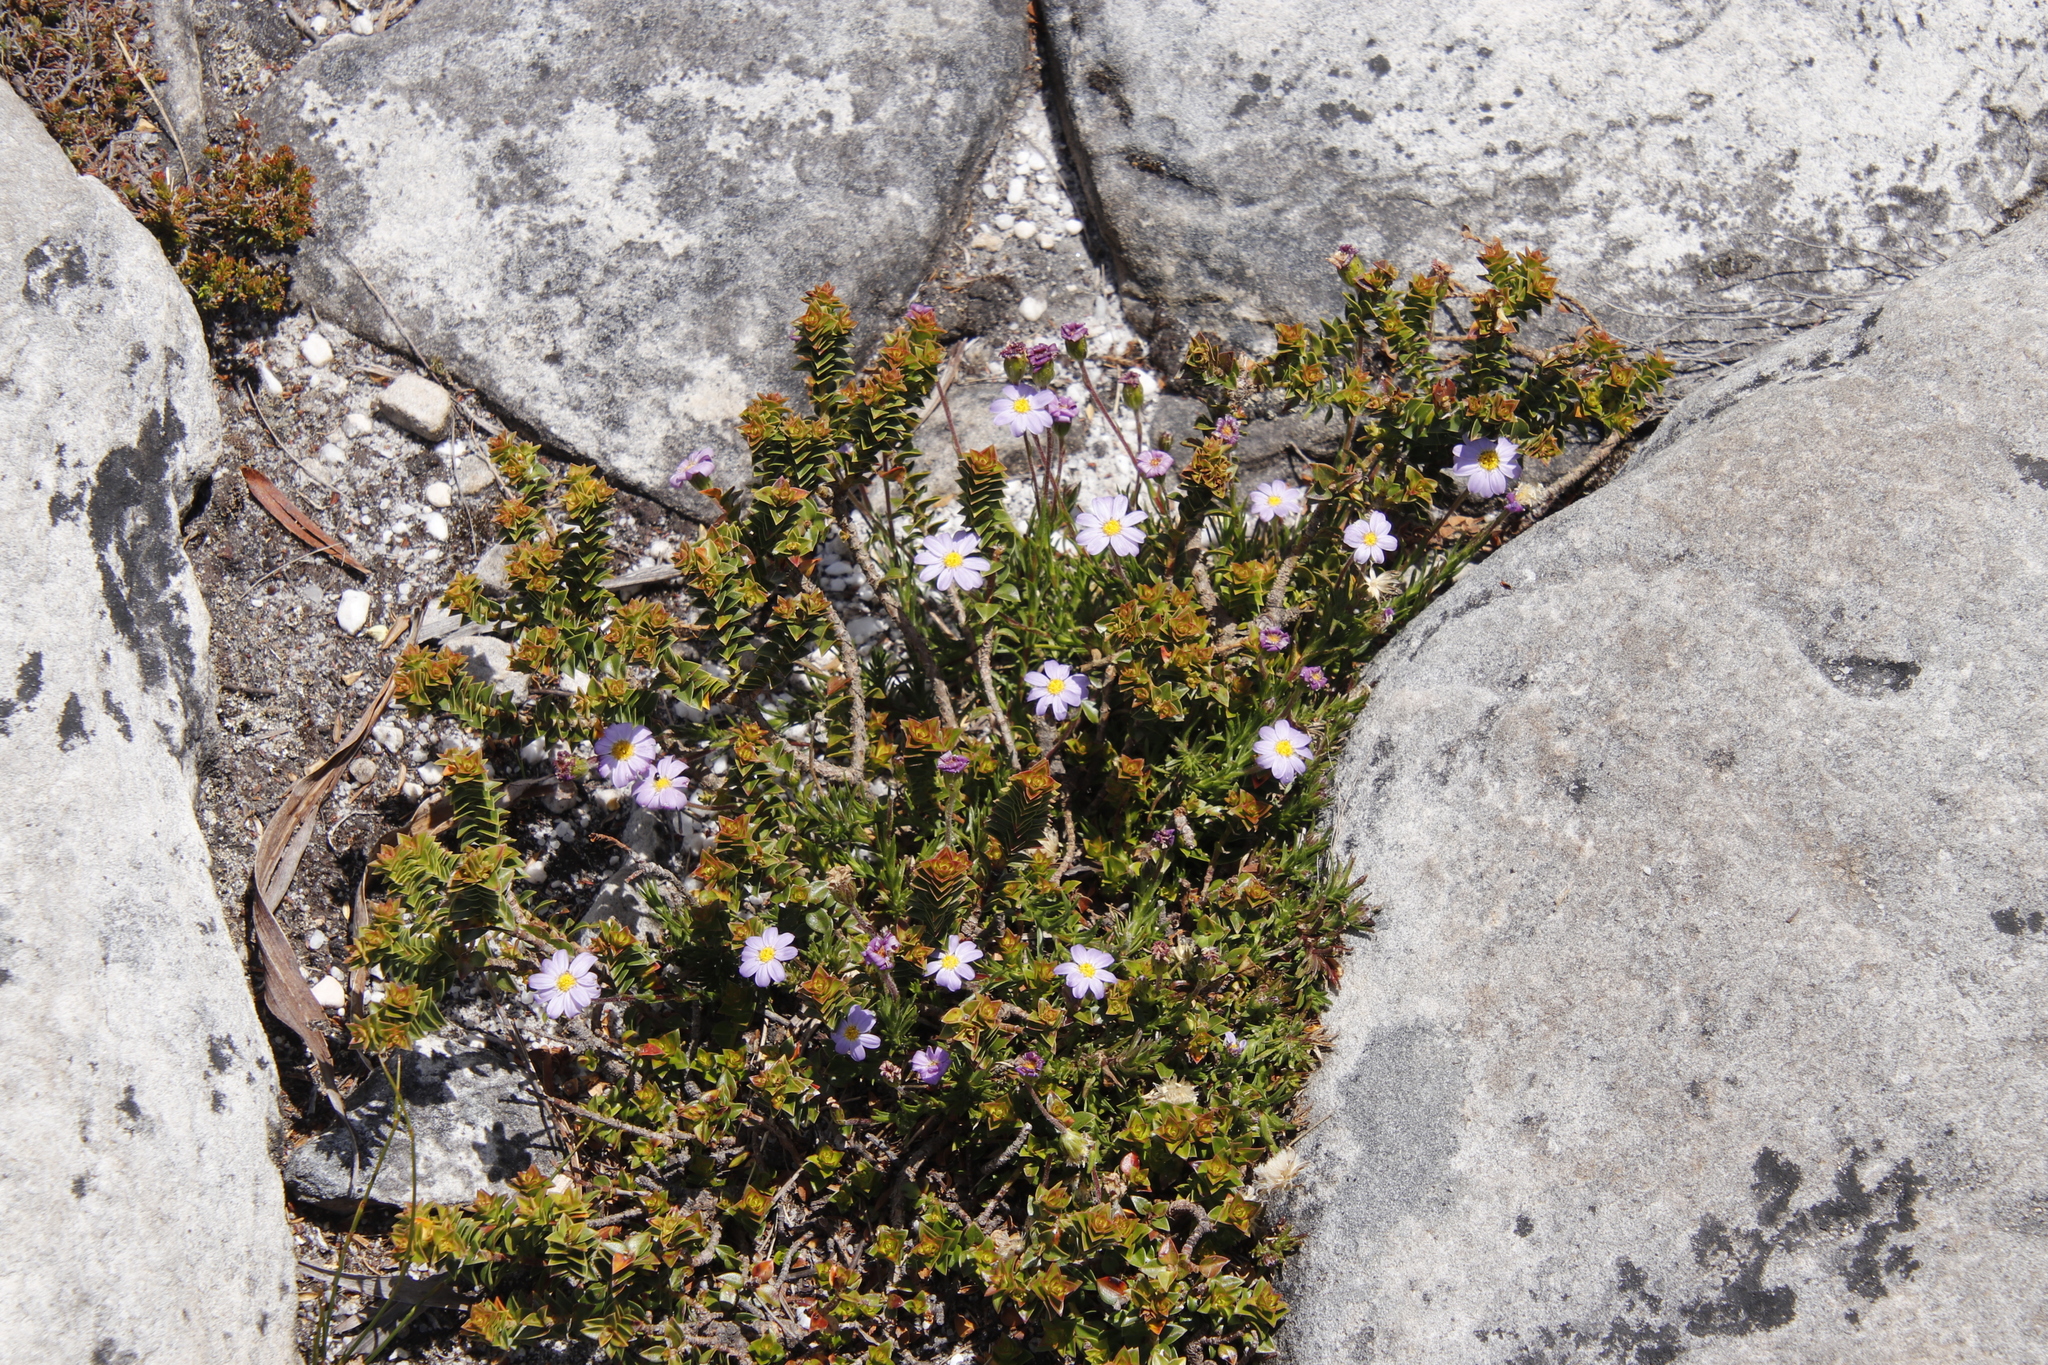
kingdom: Plantae
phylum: Tracheophyta
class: Magnoliopsida
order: Asterales
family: Asteraceae
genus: Zyrphelis
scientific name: Zyrphelis taxifolia
